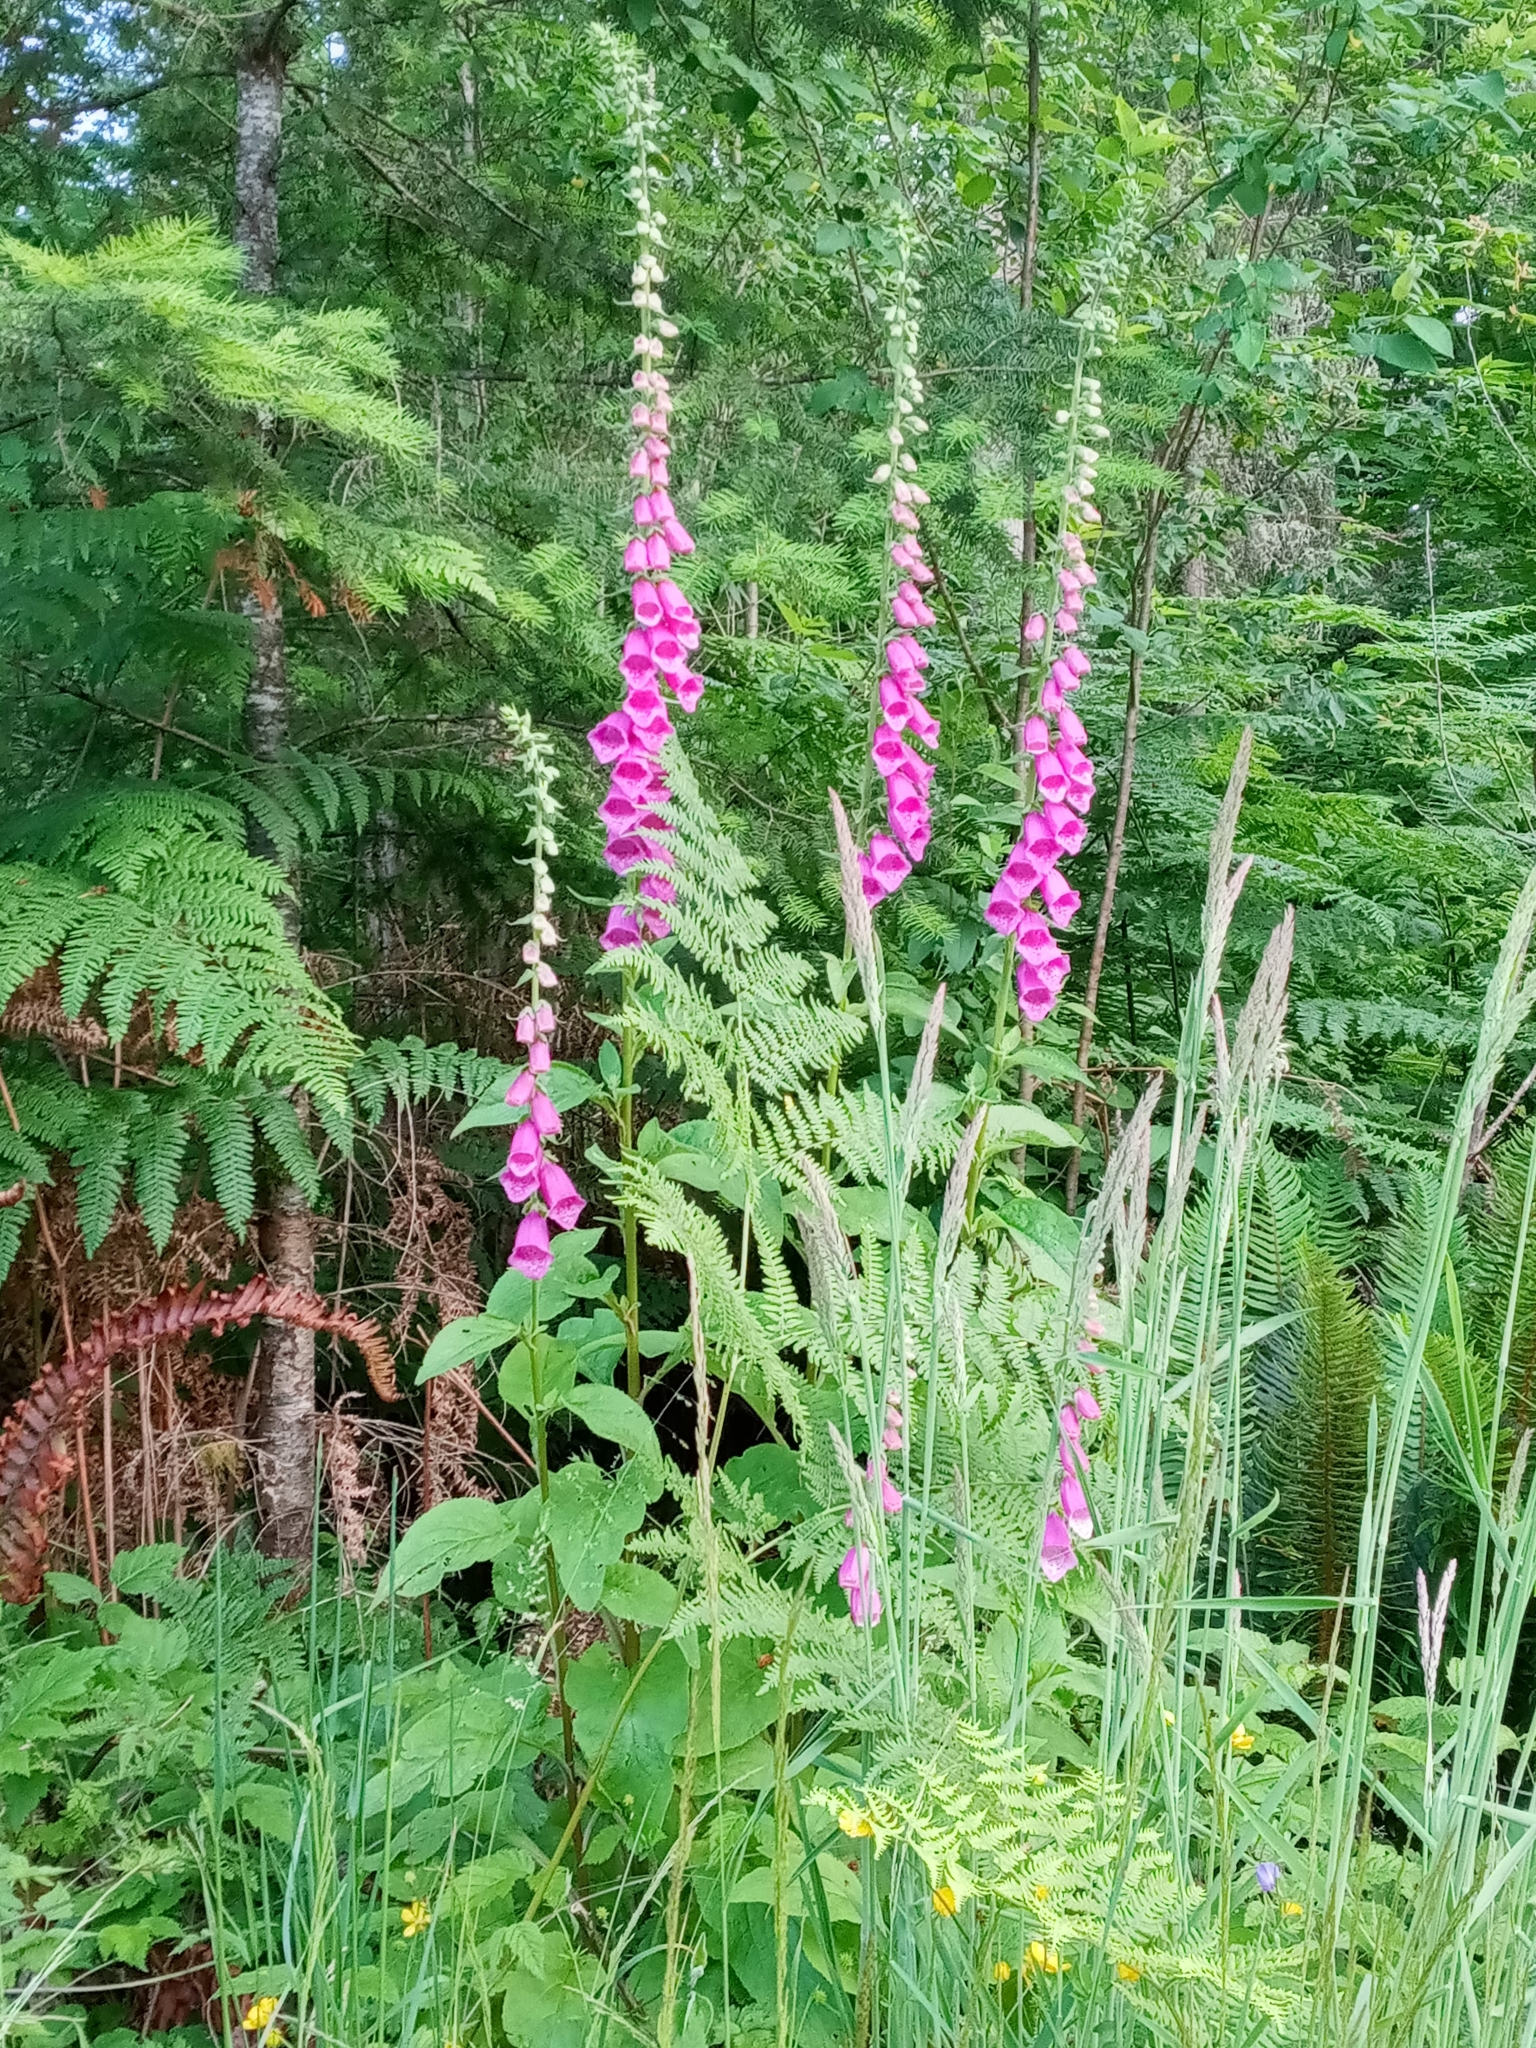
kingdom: Plantae
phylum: Tracheophyta
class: Magnoliopsida
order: Lamiales
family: Plantaginaceae
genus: Digitalis
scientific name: Digitalis purpurea
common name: Foxglove
